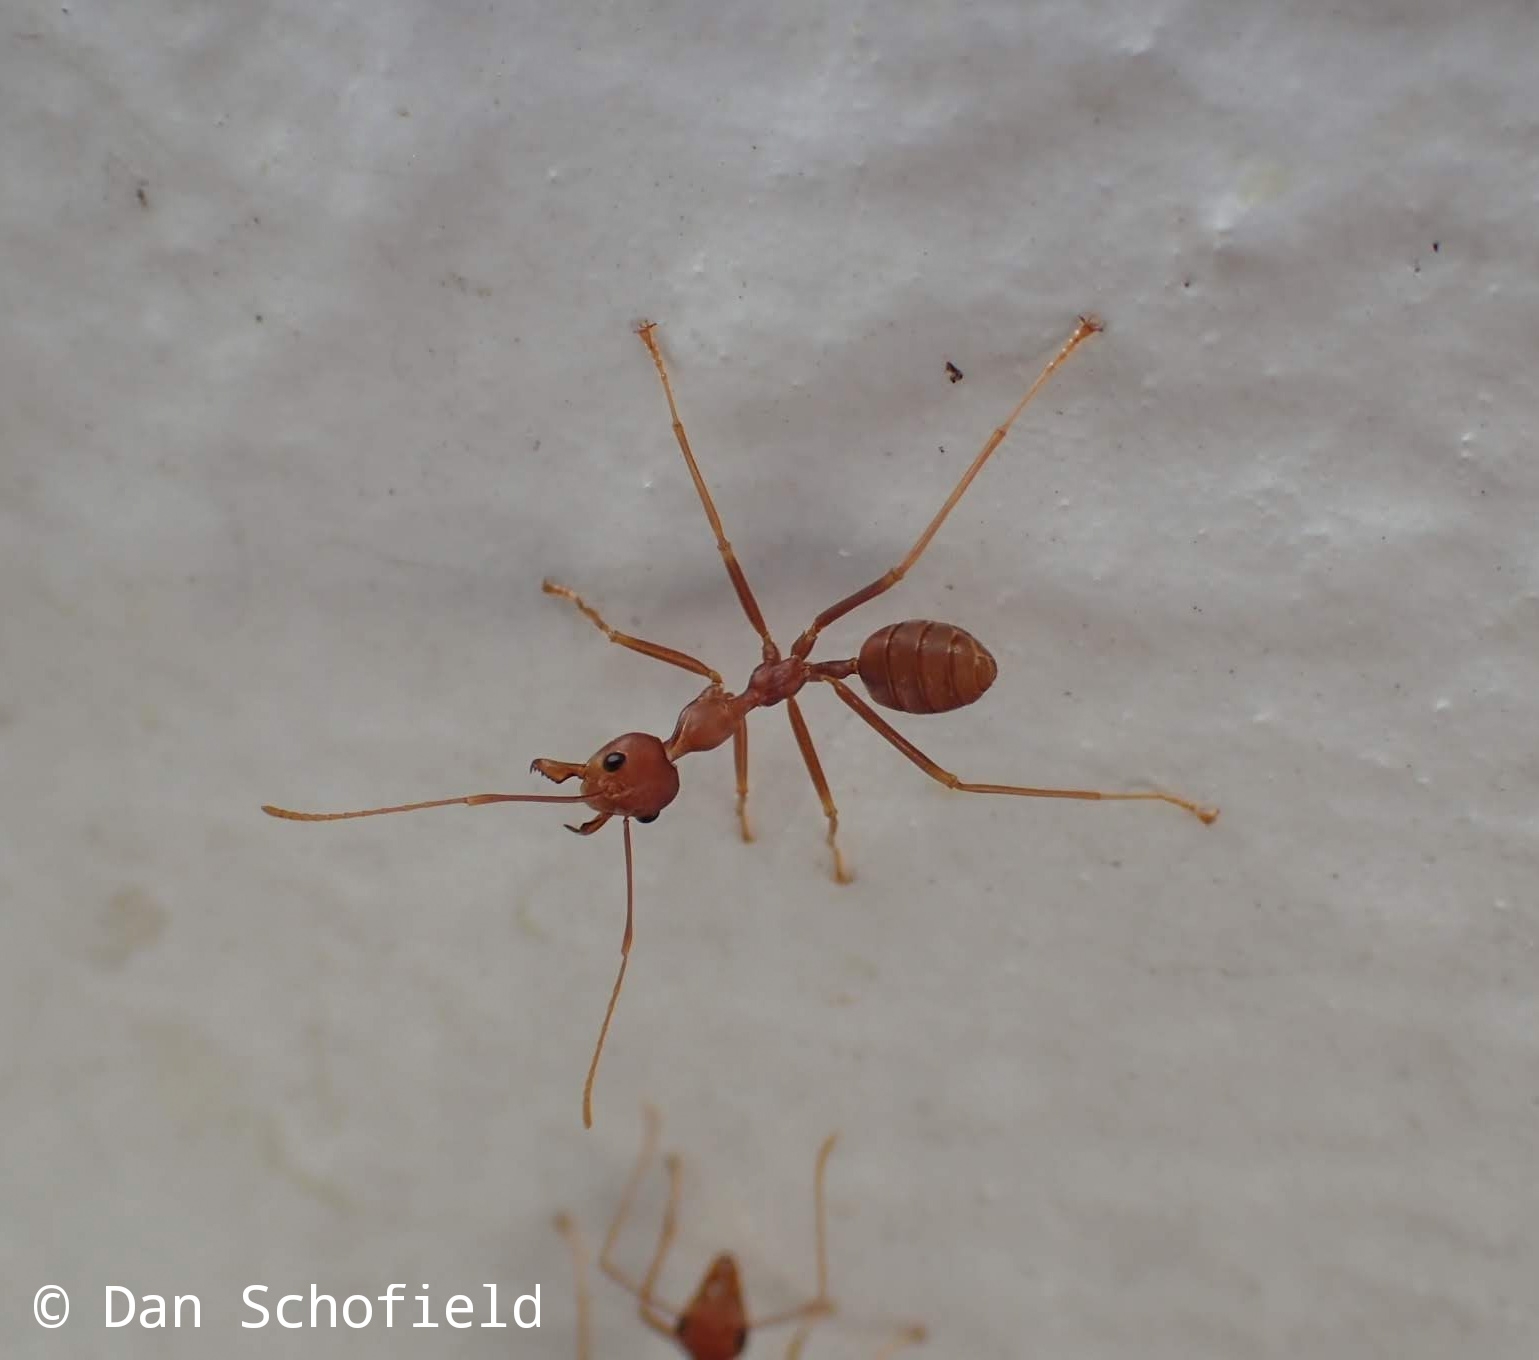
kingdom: Animalia
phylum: Arthropoda
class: Insecta
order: Hymenoptera
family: Formicidae
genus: Oecophylla
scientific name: Oecophylla smaragdina
